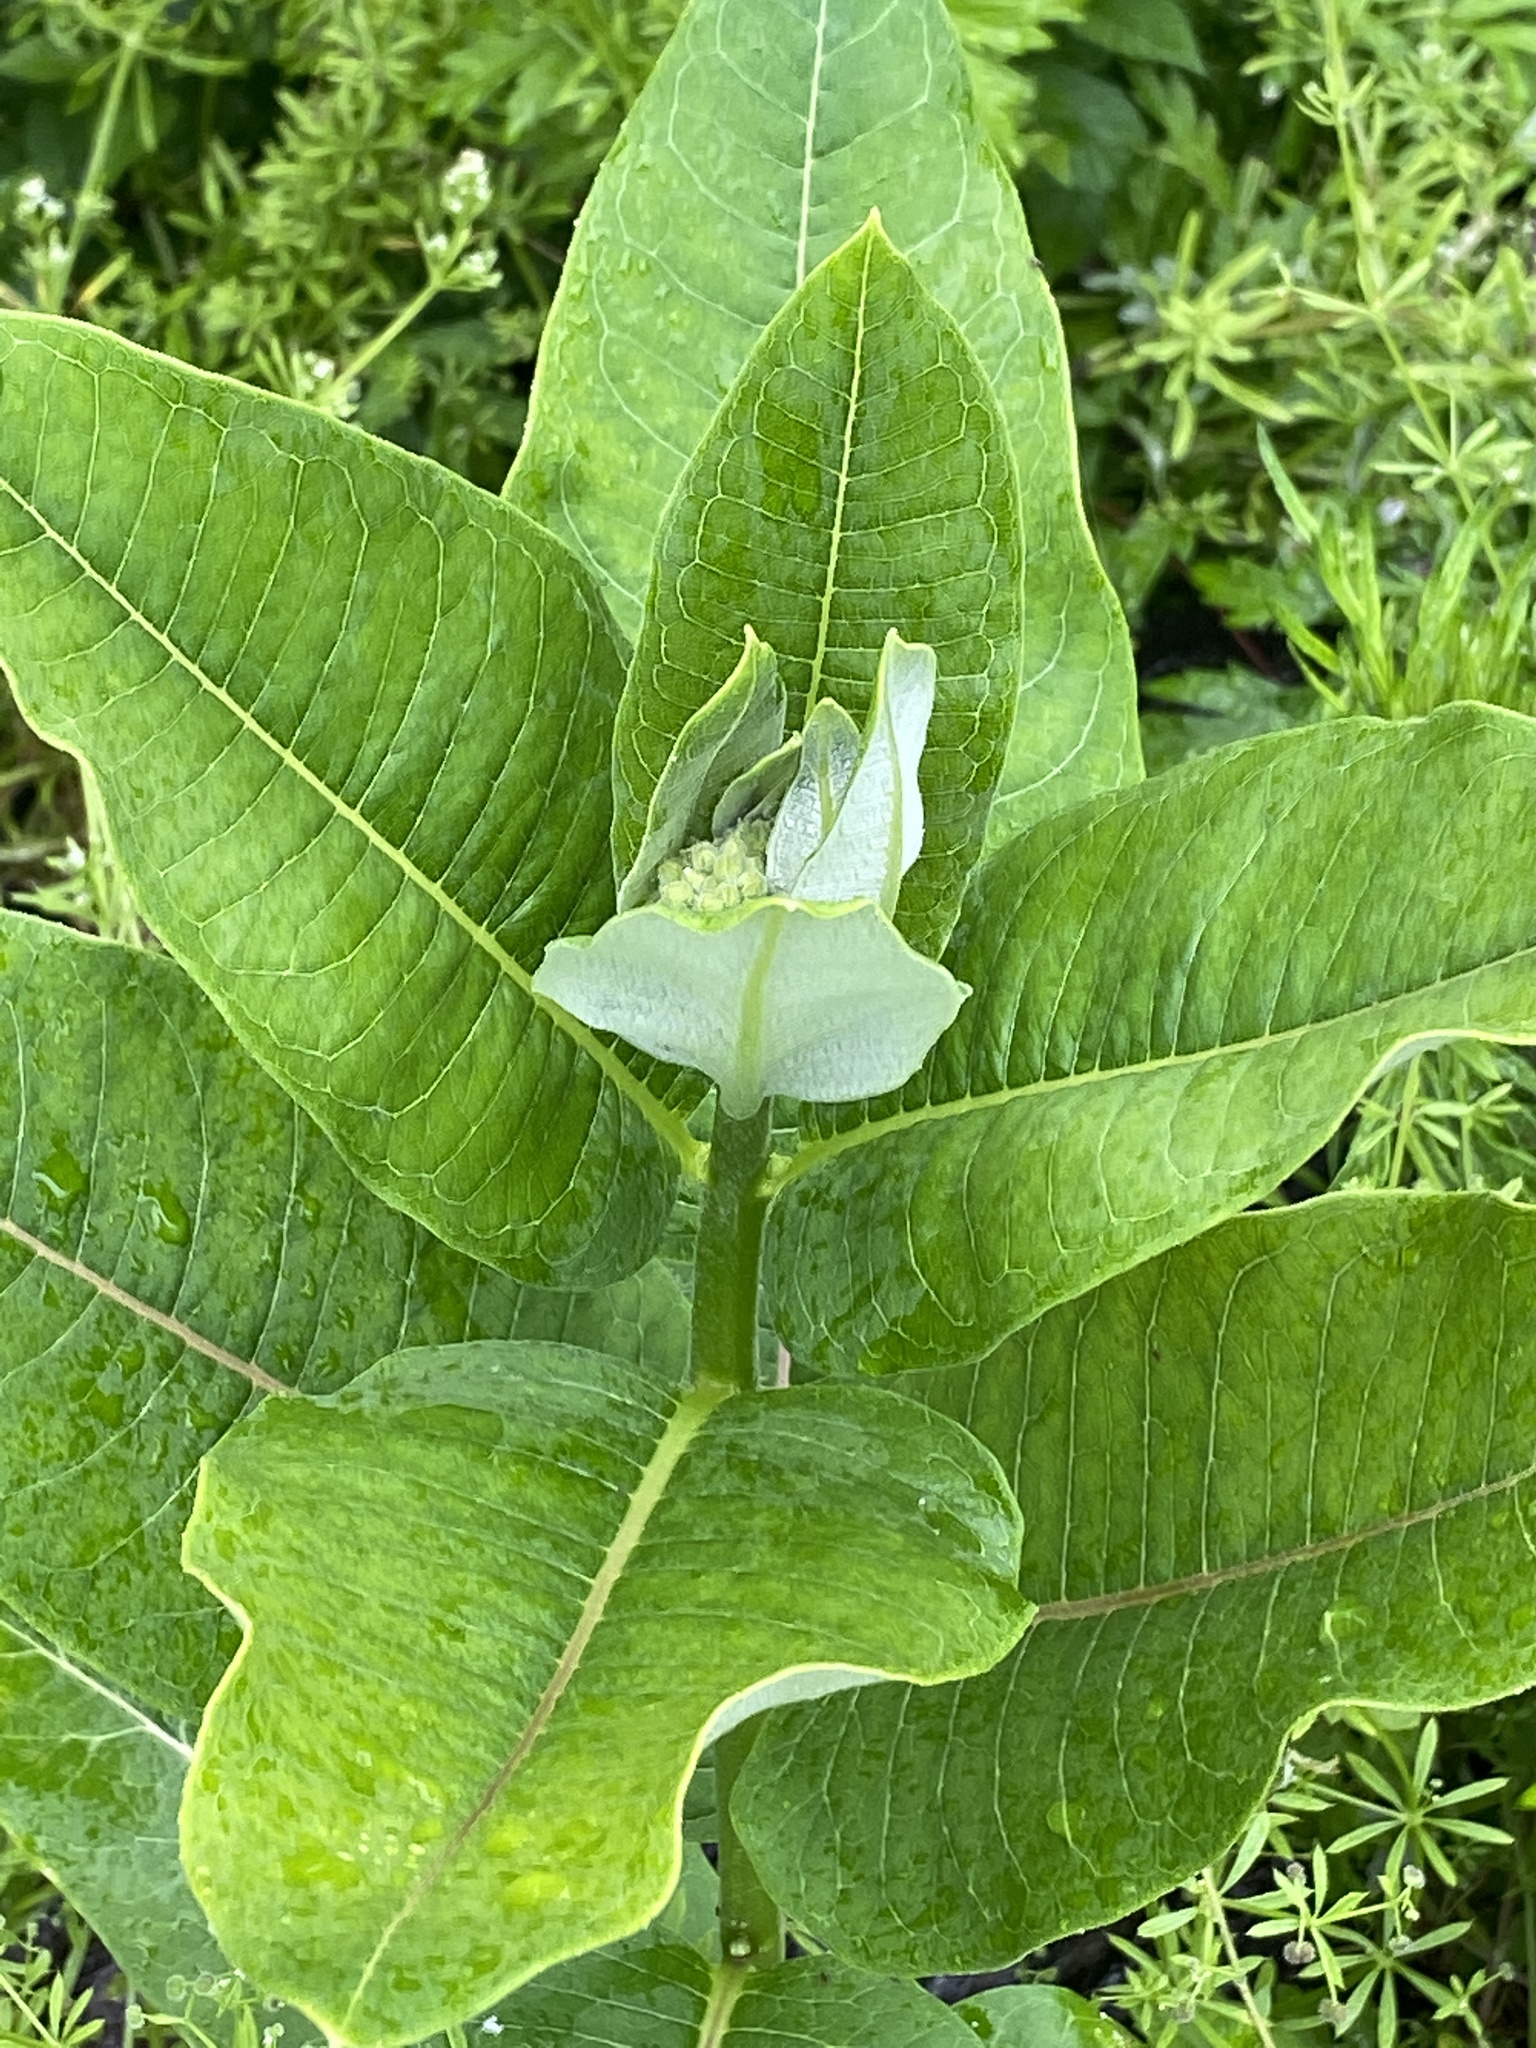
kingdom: Plantae
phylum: Tracheophyta
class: Magnoliopsida
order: Gentianales
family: Apocynaceae
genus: Asclepias
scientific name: Asclepias syriaca
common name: Common milkweed
